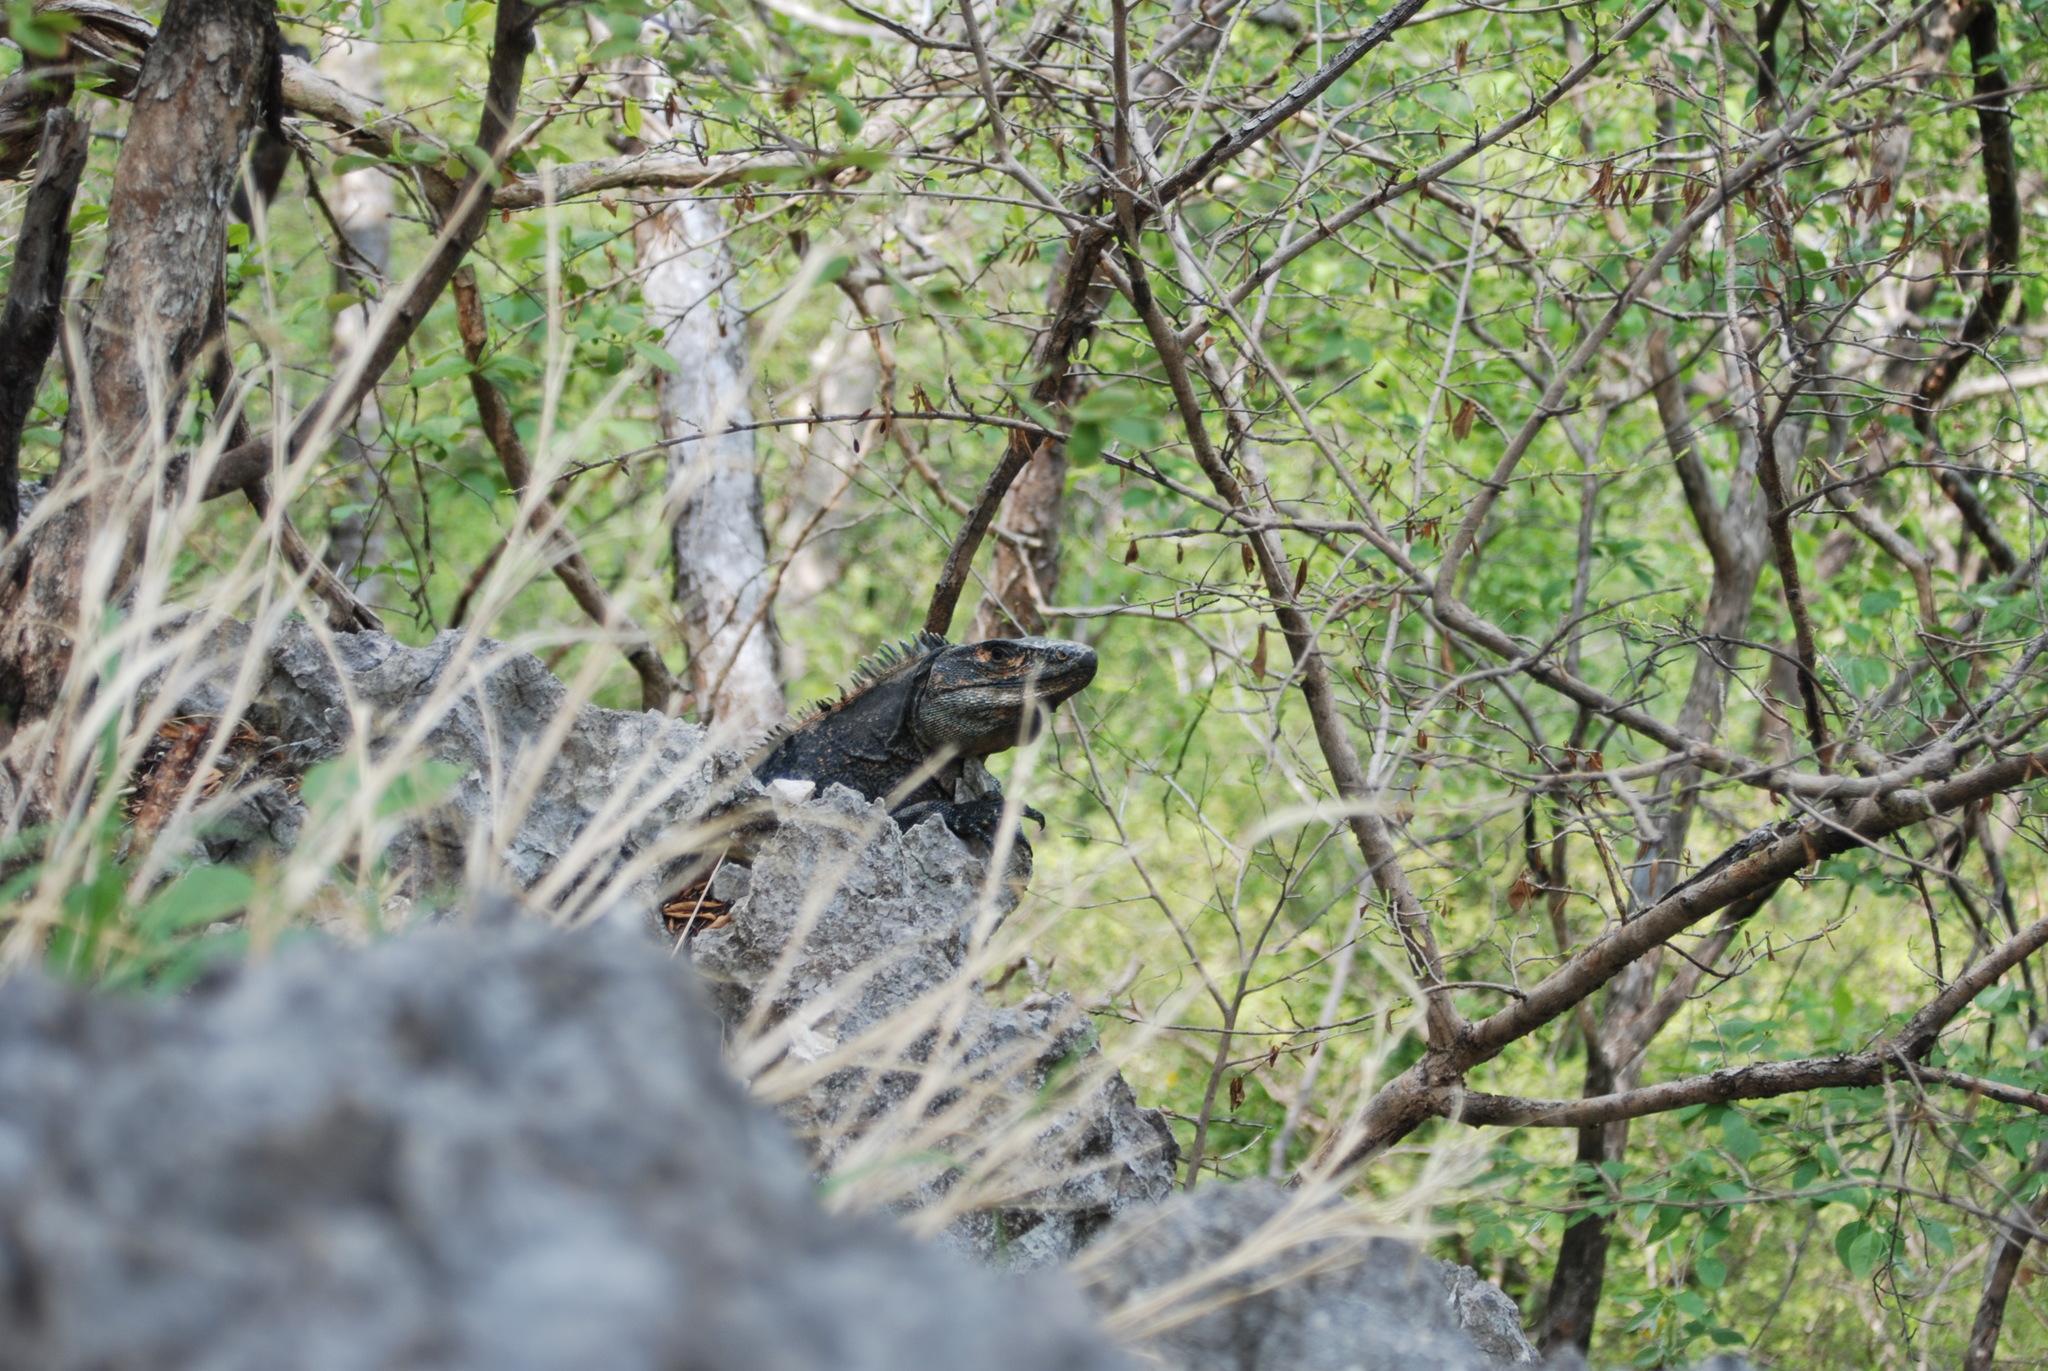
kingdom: Animalia
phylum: Chordata
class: Squamata
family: Iguanidae
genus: Ctenosaura
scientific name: Ctenosaura similis
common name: Black spiny-tailed iguana
